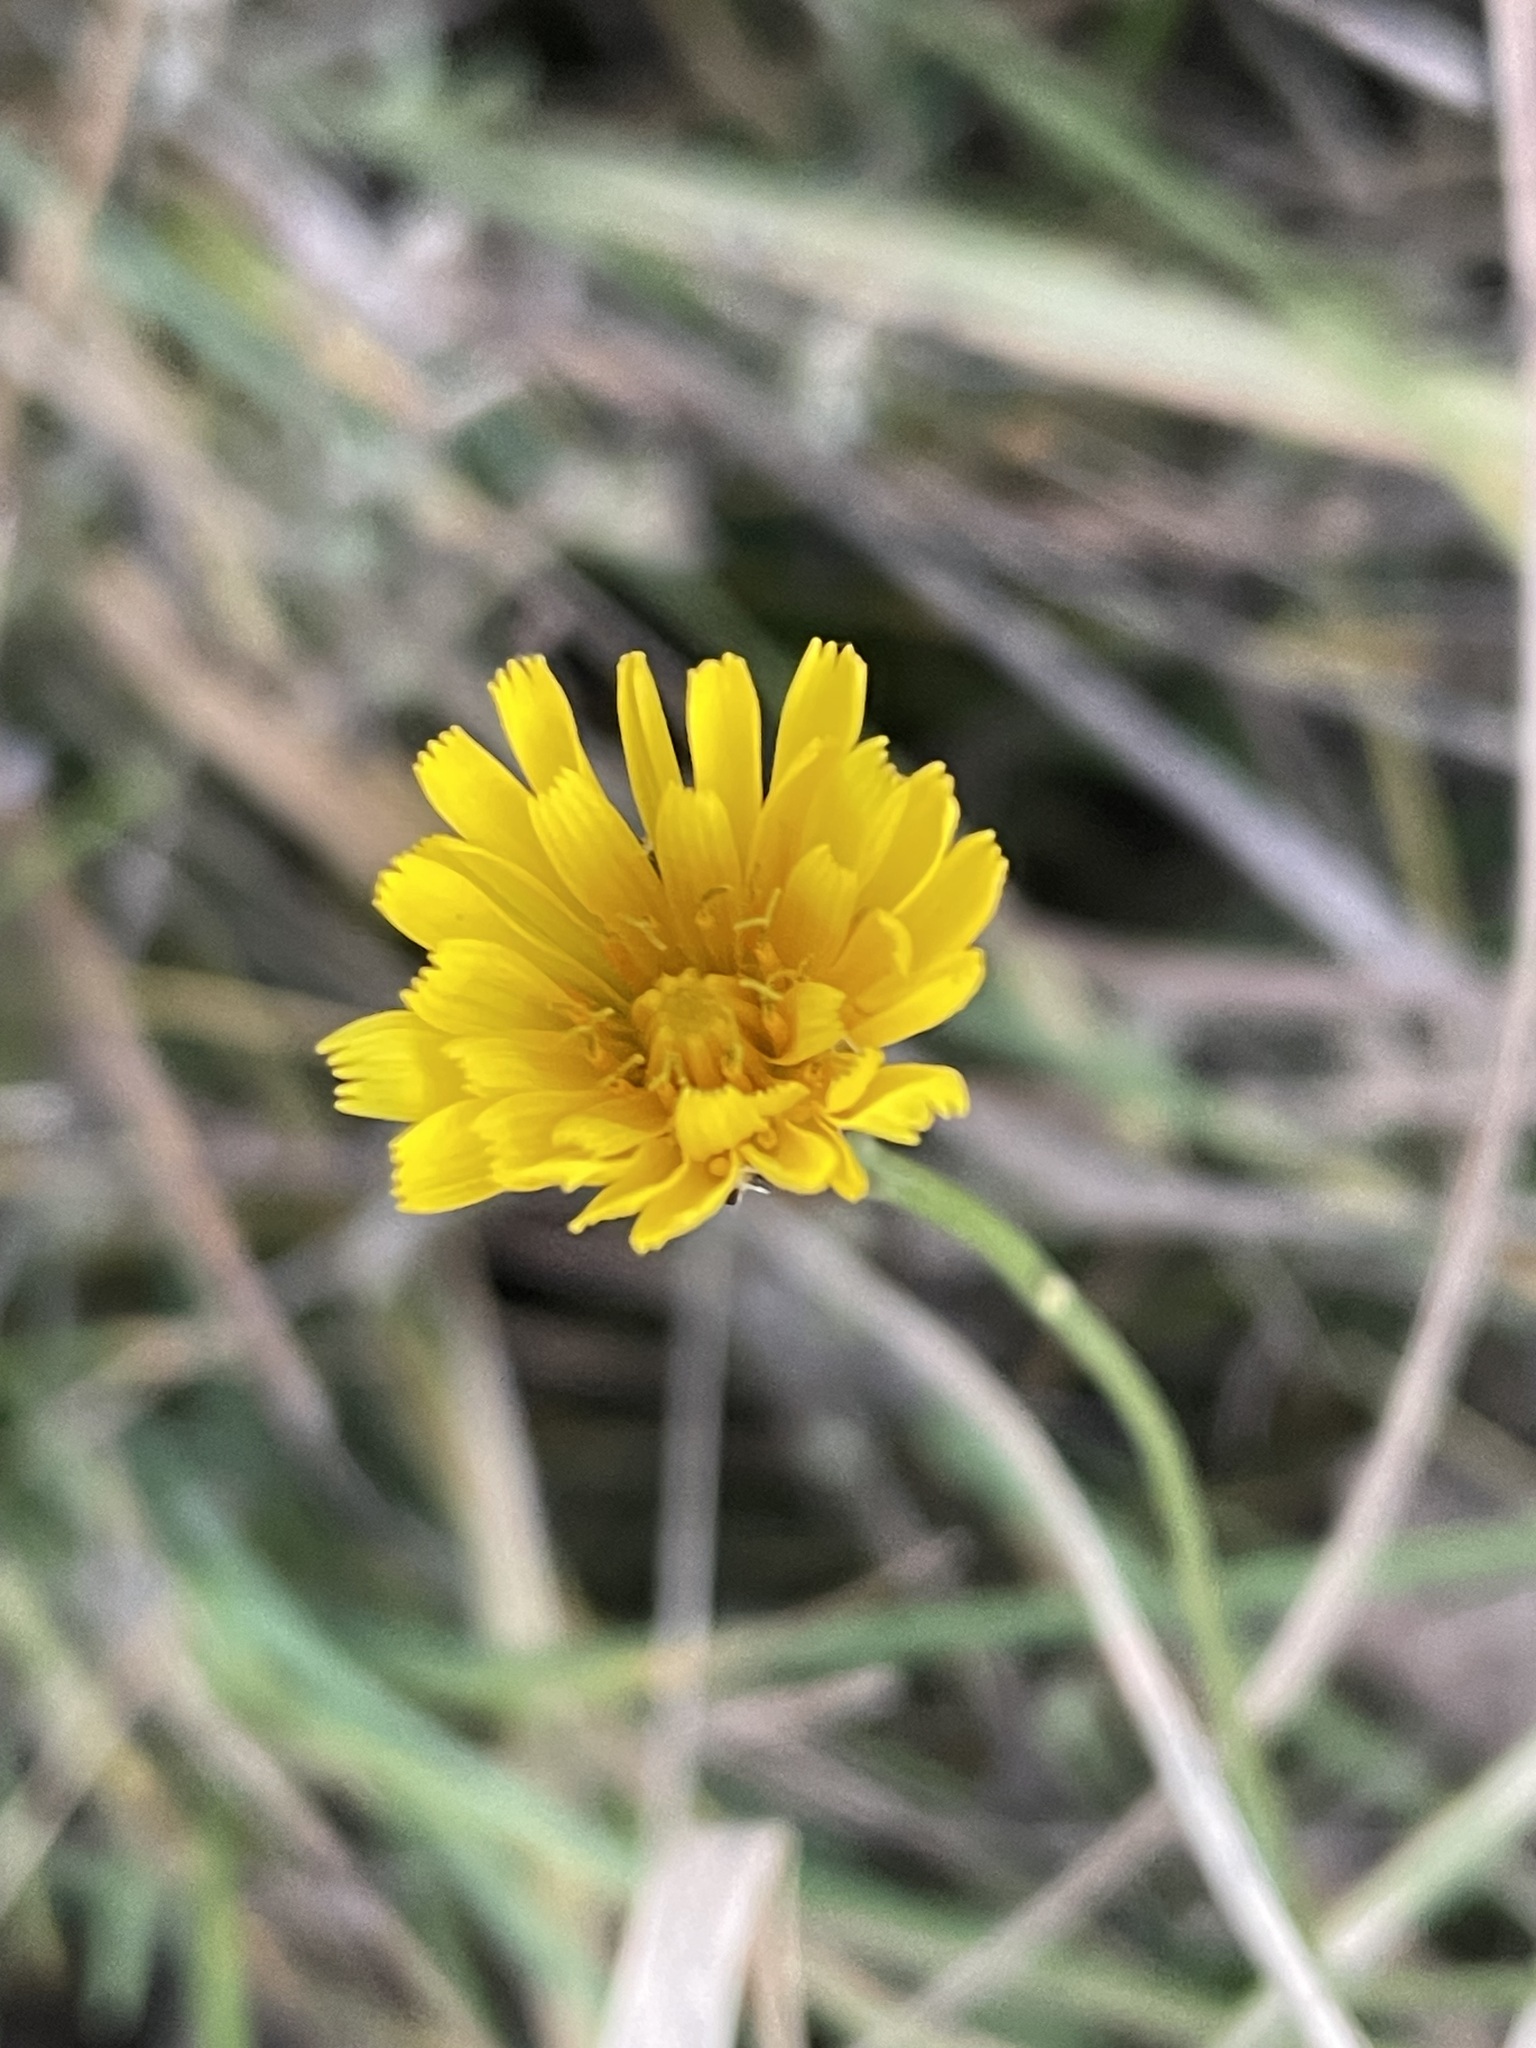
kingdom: Plantae
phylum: Tracheophyta
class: Magnoliopsida
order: Asterales
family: Asteraceae
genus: Scorzoneroides
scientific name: Scorzoneroides autumnalis
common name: Autumn hawkbit
